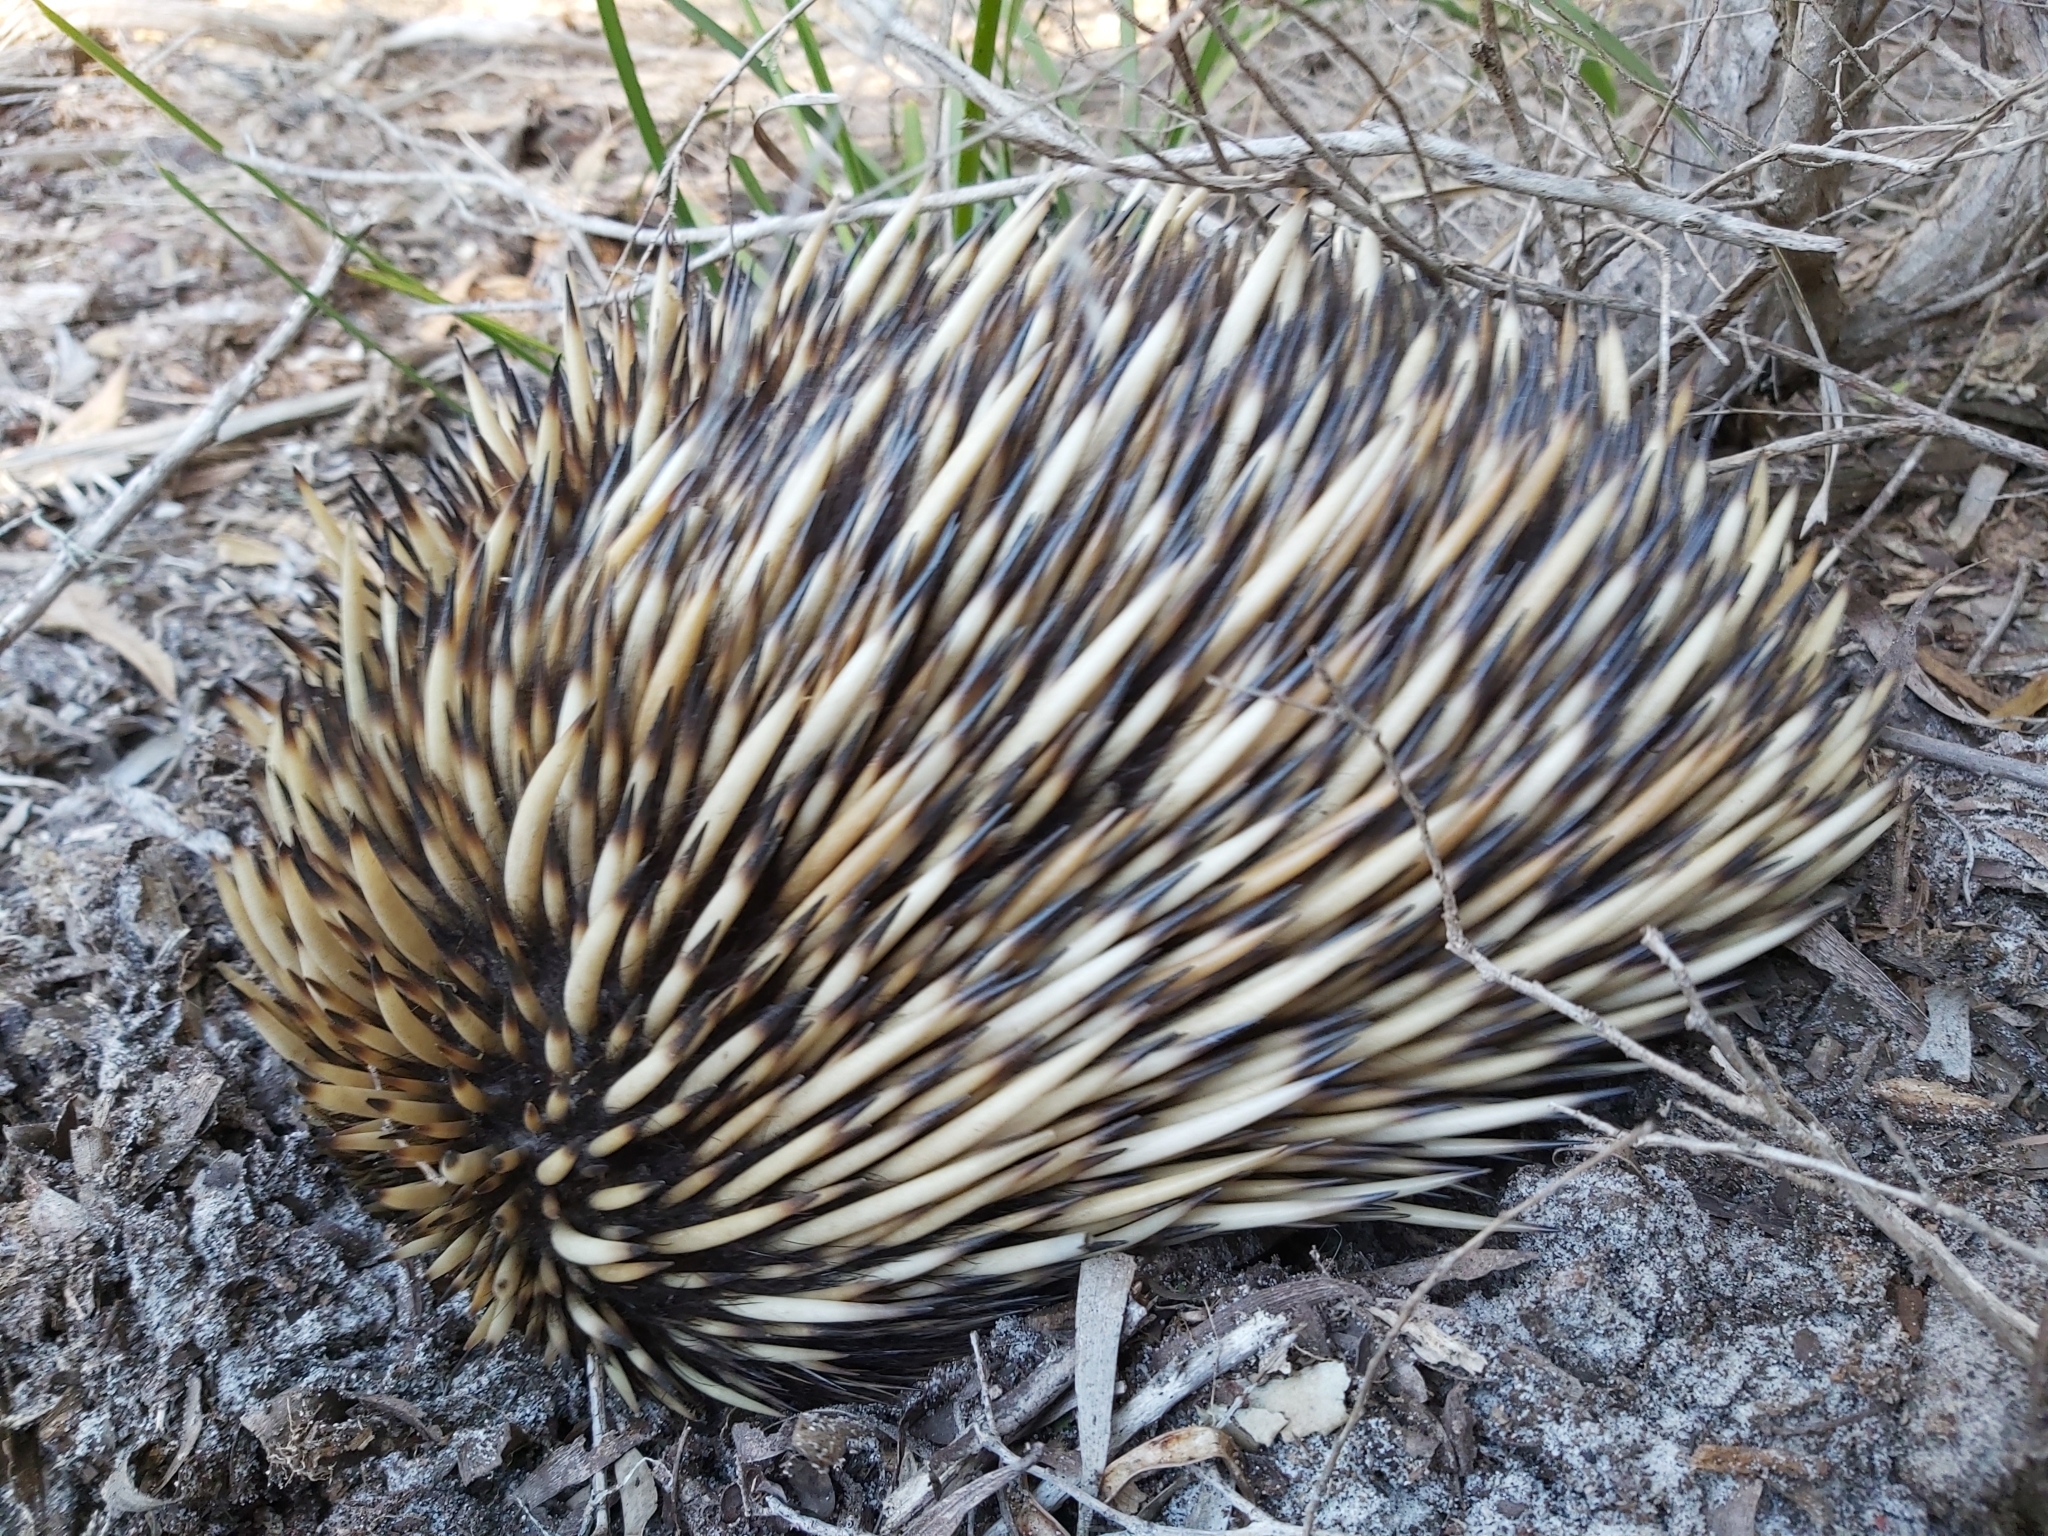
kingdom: Animalia
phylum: Chordata
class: Mammalia
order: Monotremata
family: Tachyglossidae
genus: Tachyglossus
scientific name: Tachyglossus aculeatus
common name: Short-beaked echidna
